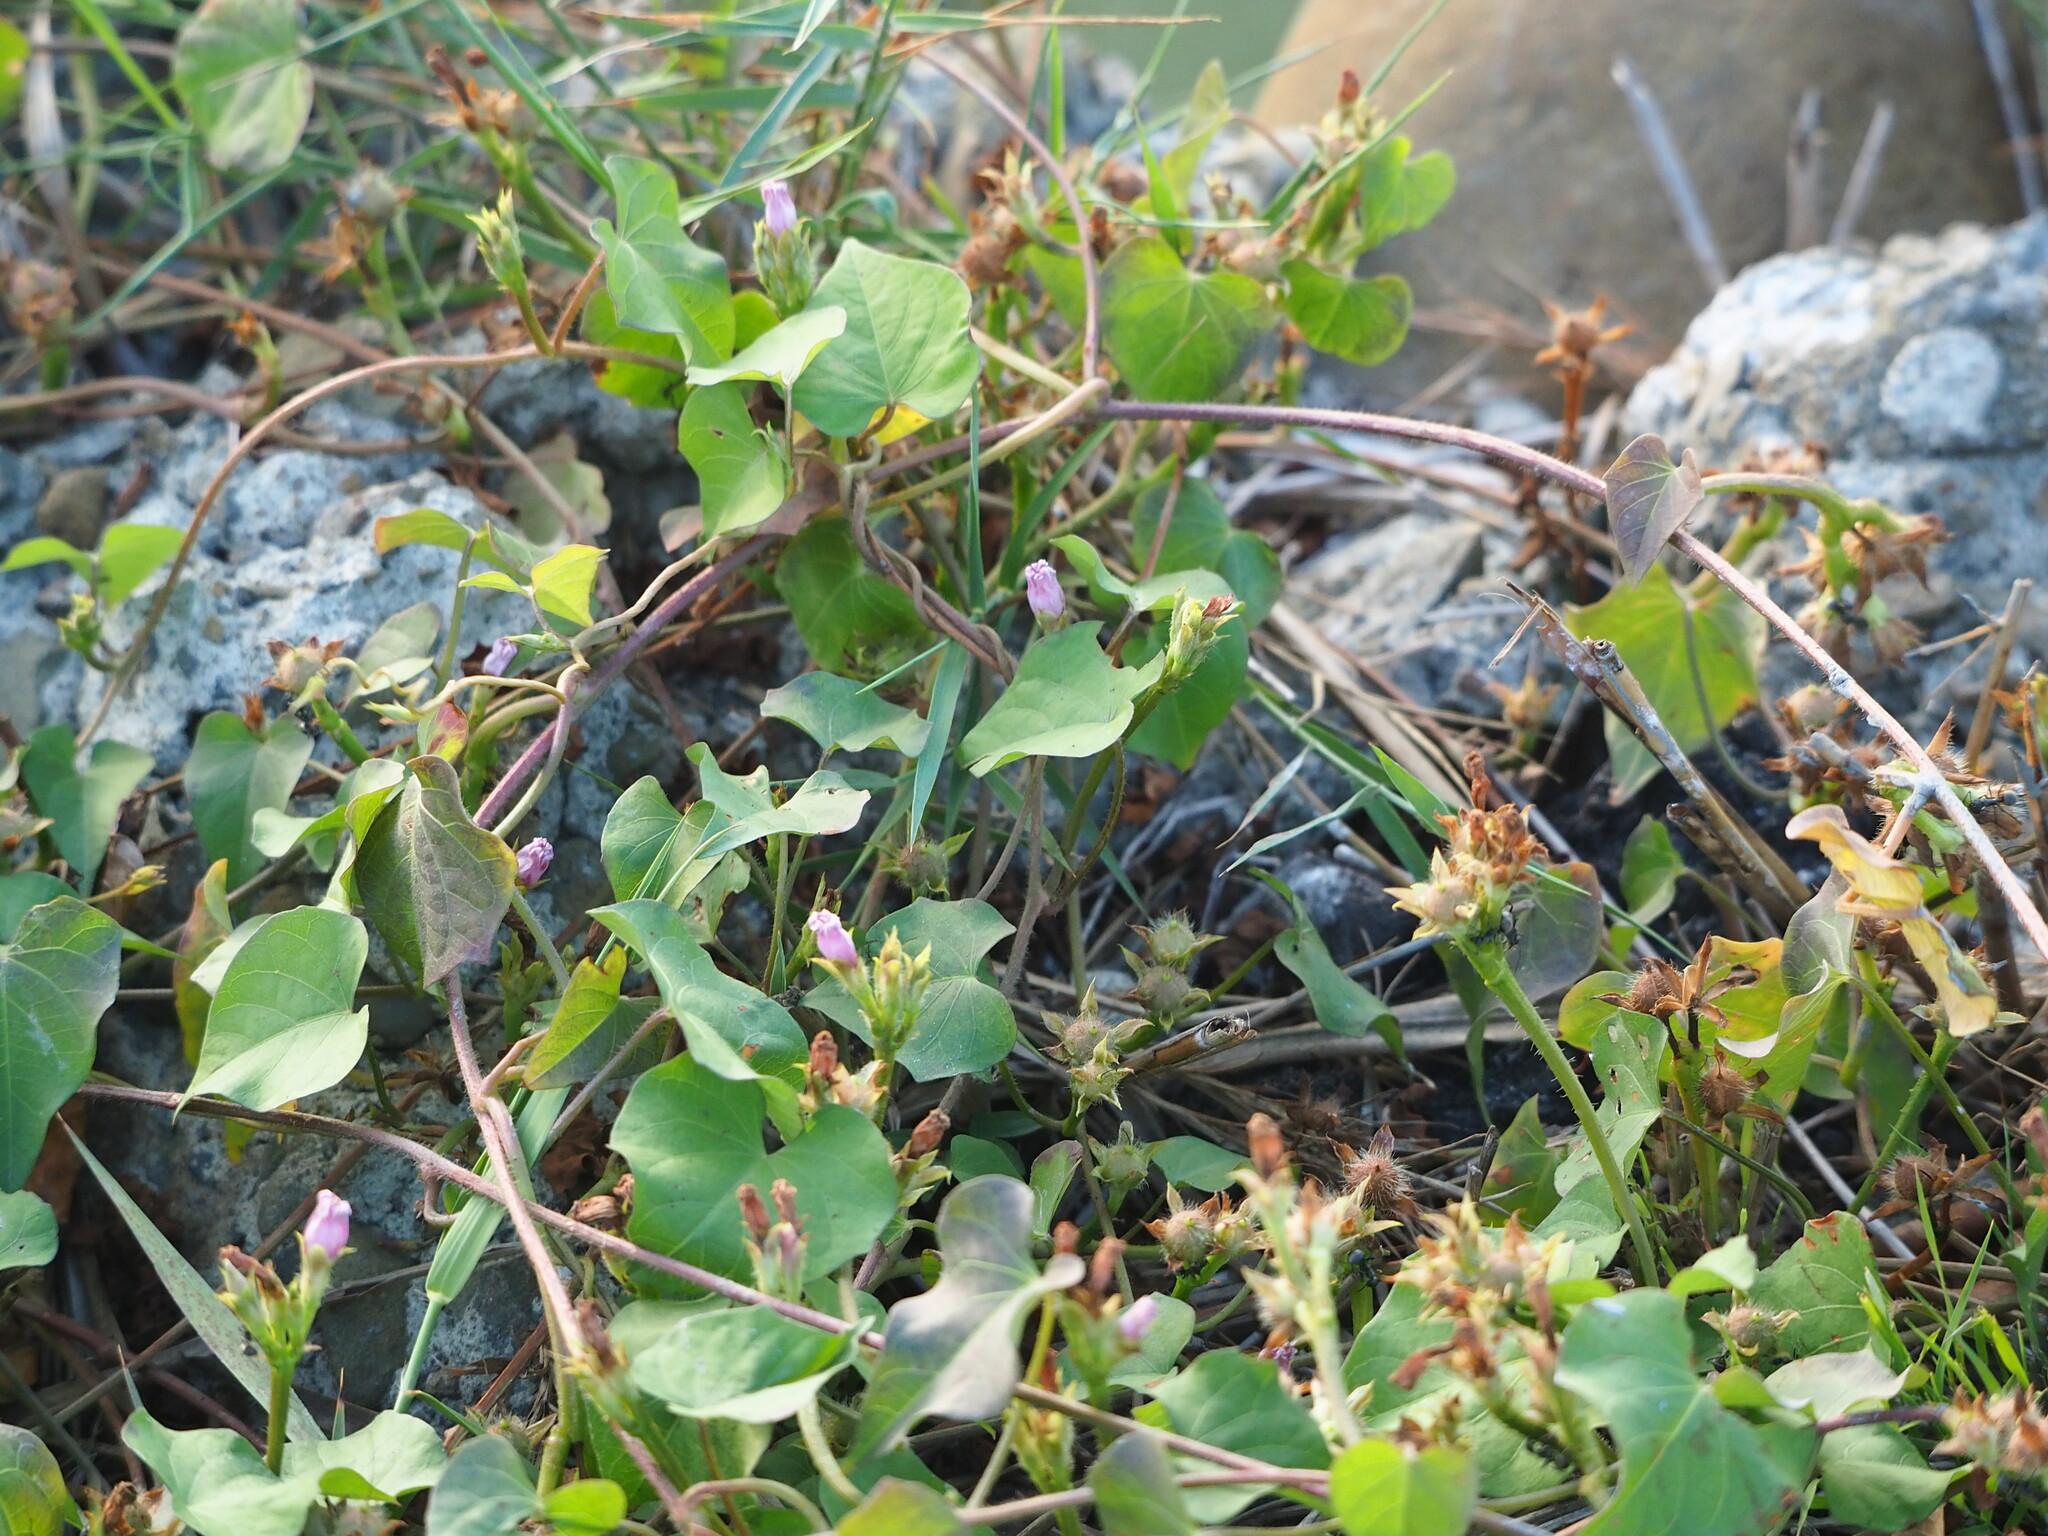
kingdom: Plantae
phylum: Tracheophyta
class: Magnoliopsida
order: Solanales
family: Convolvulaceae
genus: Ipomoea
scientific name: Ipomoea triloba
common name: Little-bell
